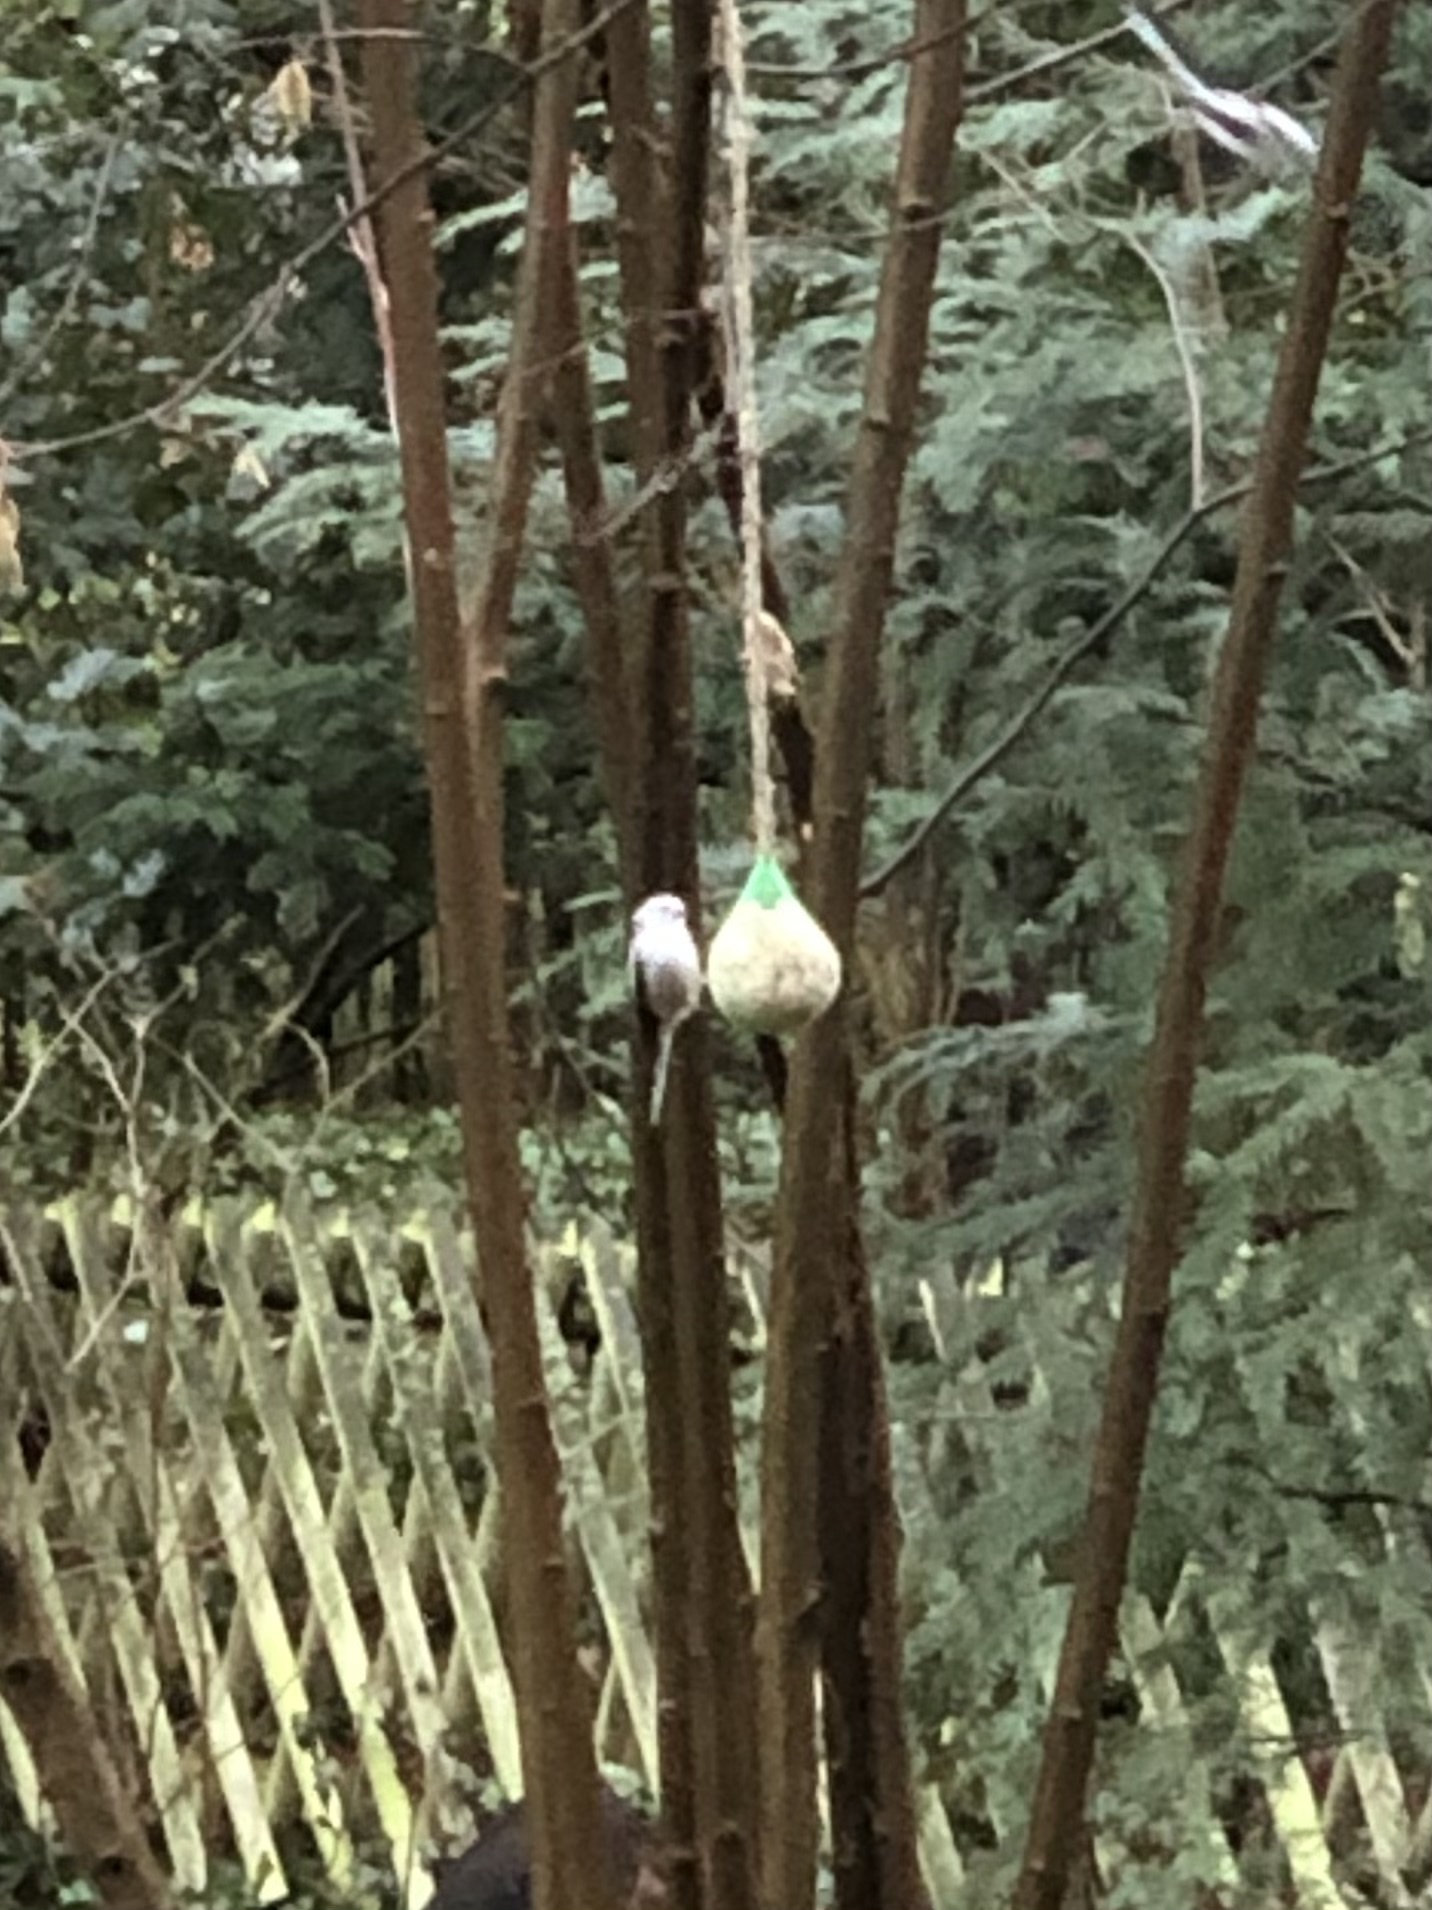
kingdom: Animalia
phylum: Chordata
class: Aves
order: Passeriformes
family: Aegithalidae
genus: Aegithalos
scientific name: Aegithalos caudatus
